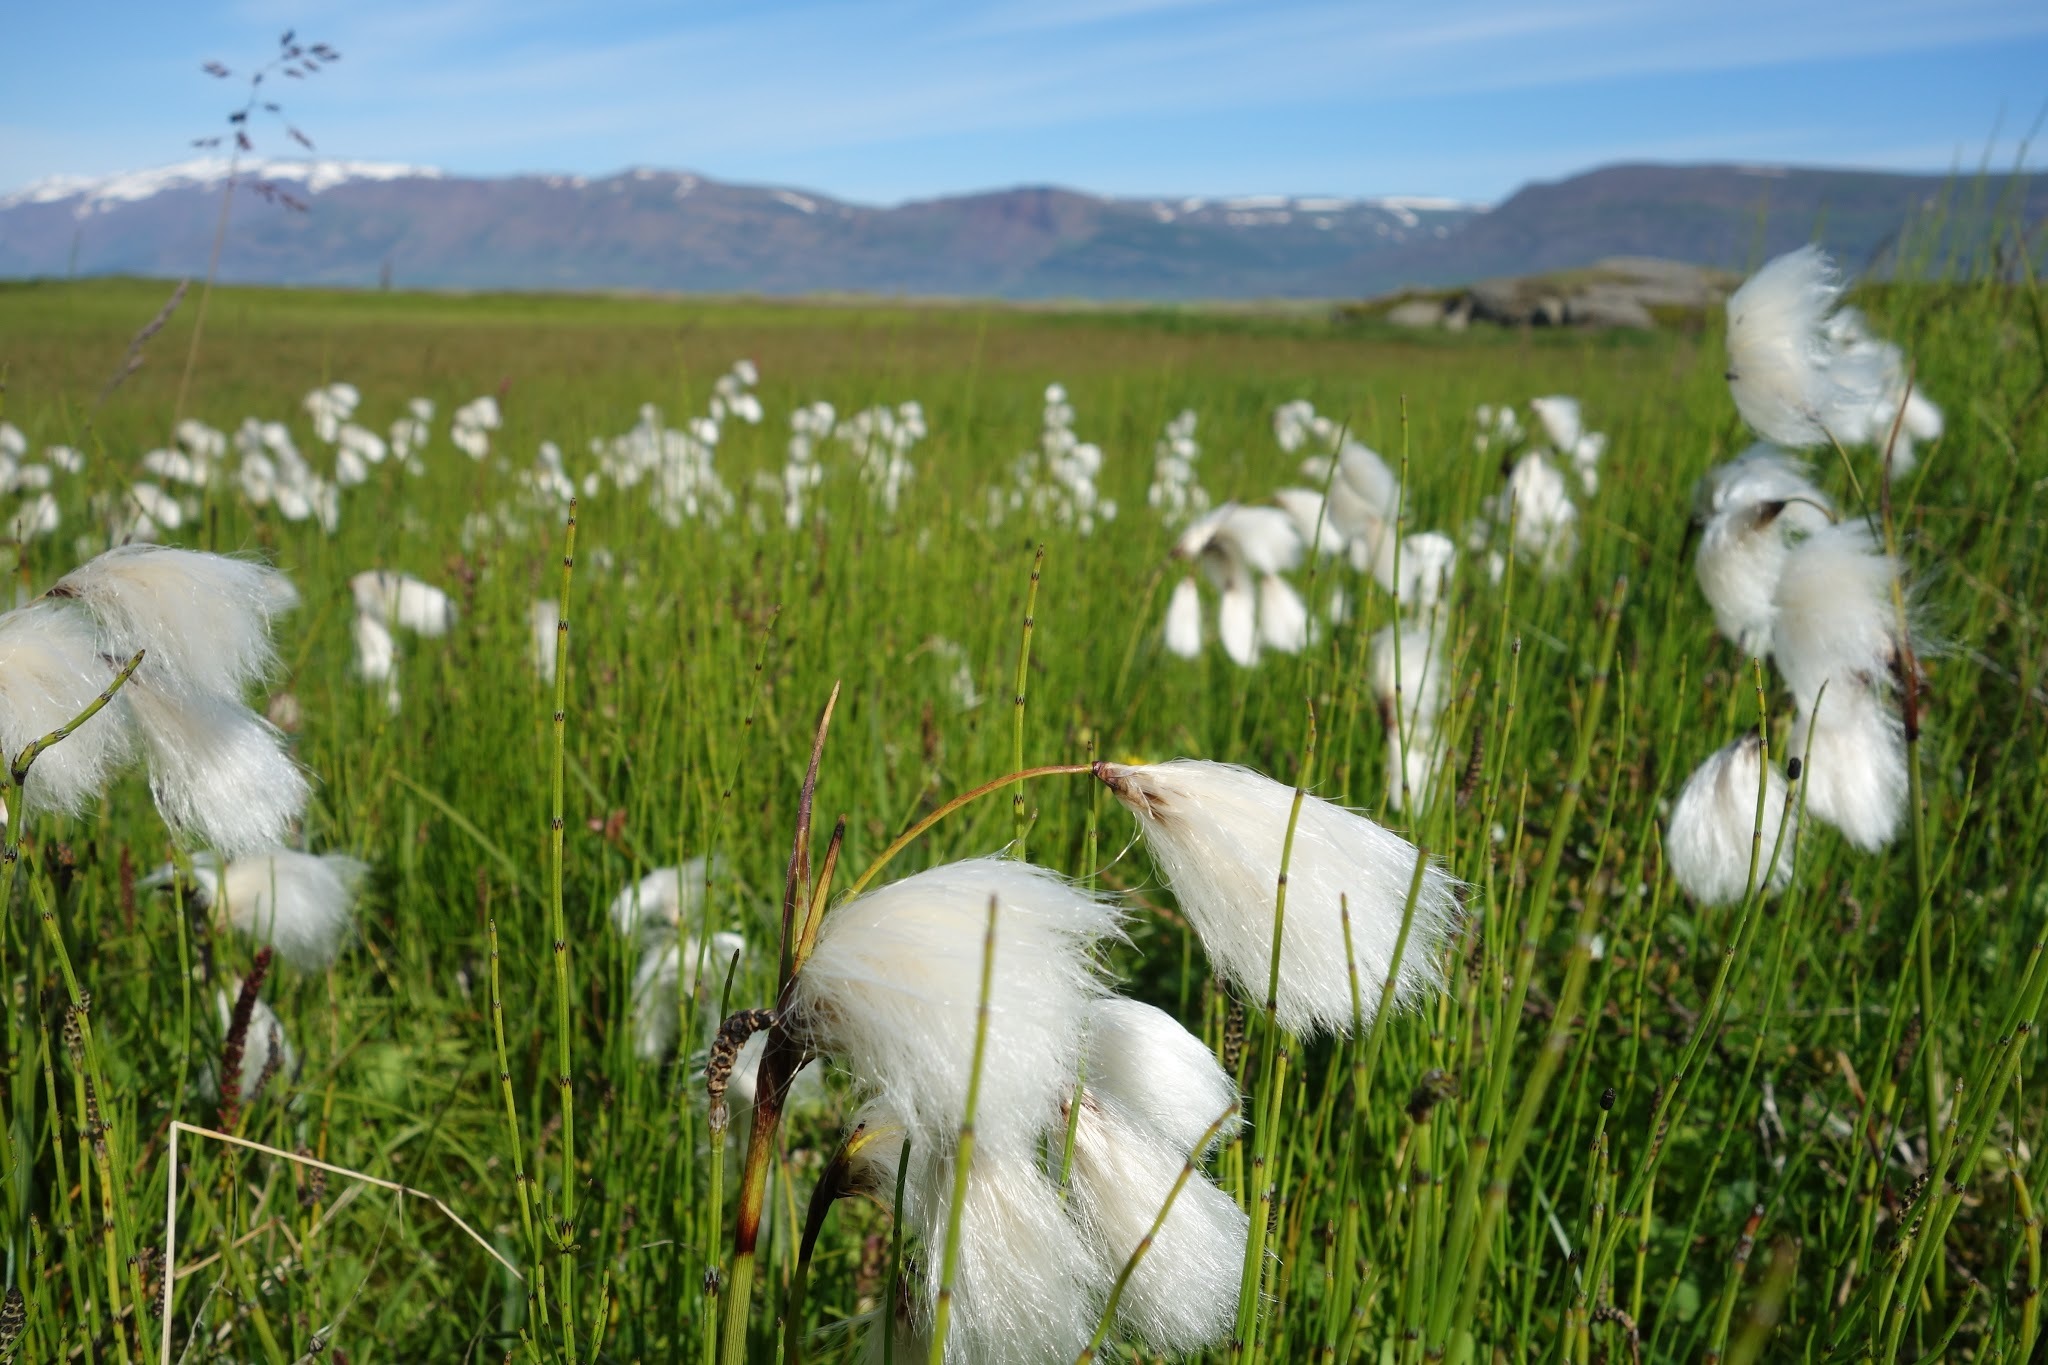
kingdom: Plantae
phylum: Tracheophyta
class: Liliopsida
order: Poales
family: Cyperaceae
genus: Eriophorum
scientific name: Eriophorum angustifolium
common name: Common cottongrass
